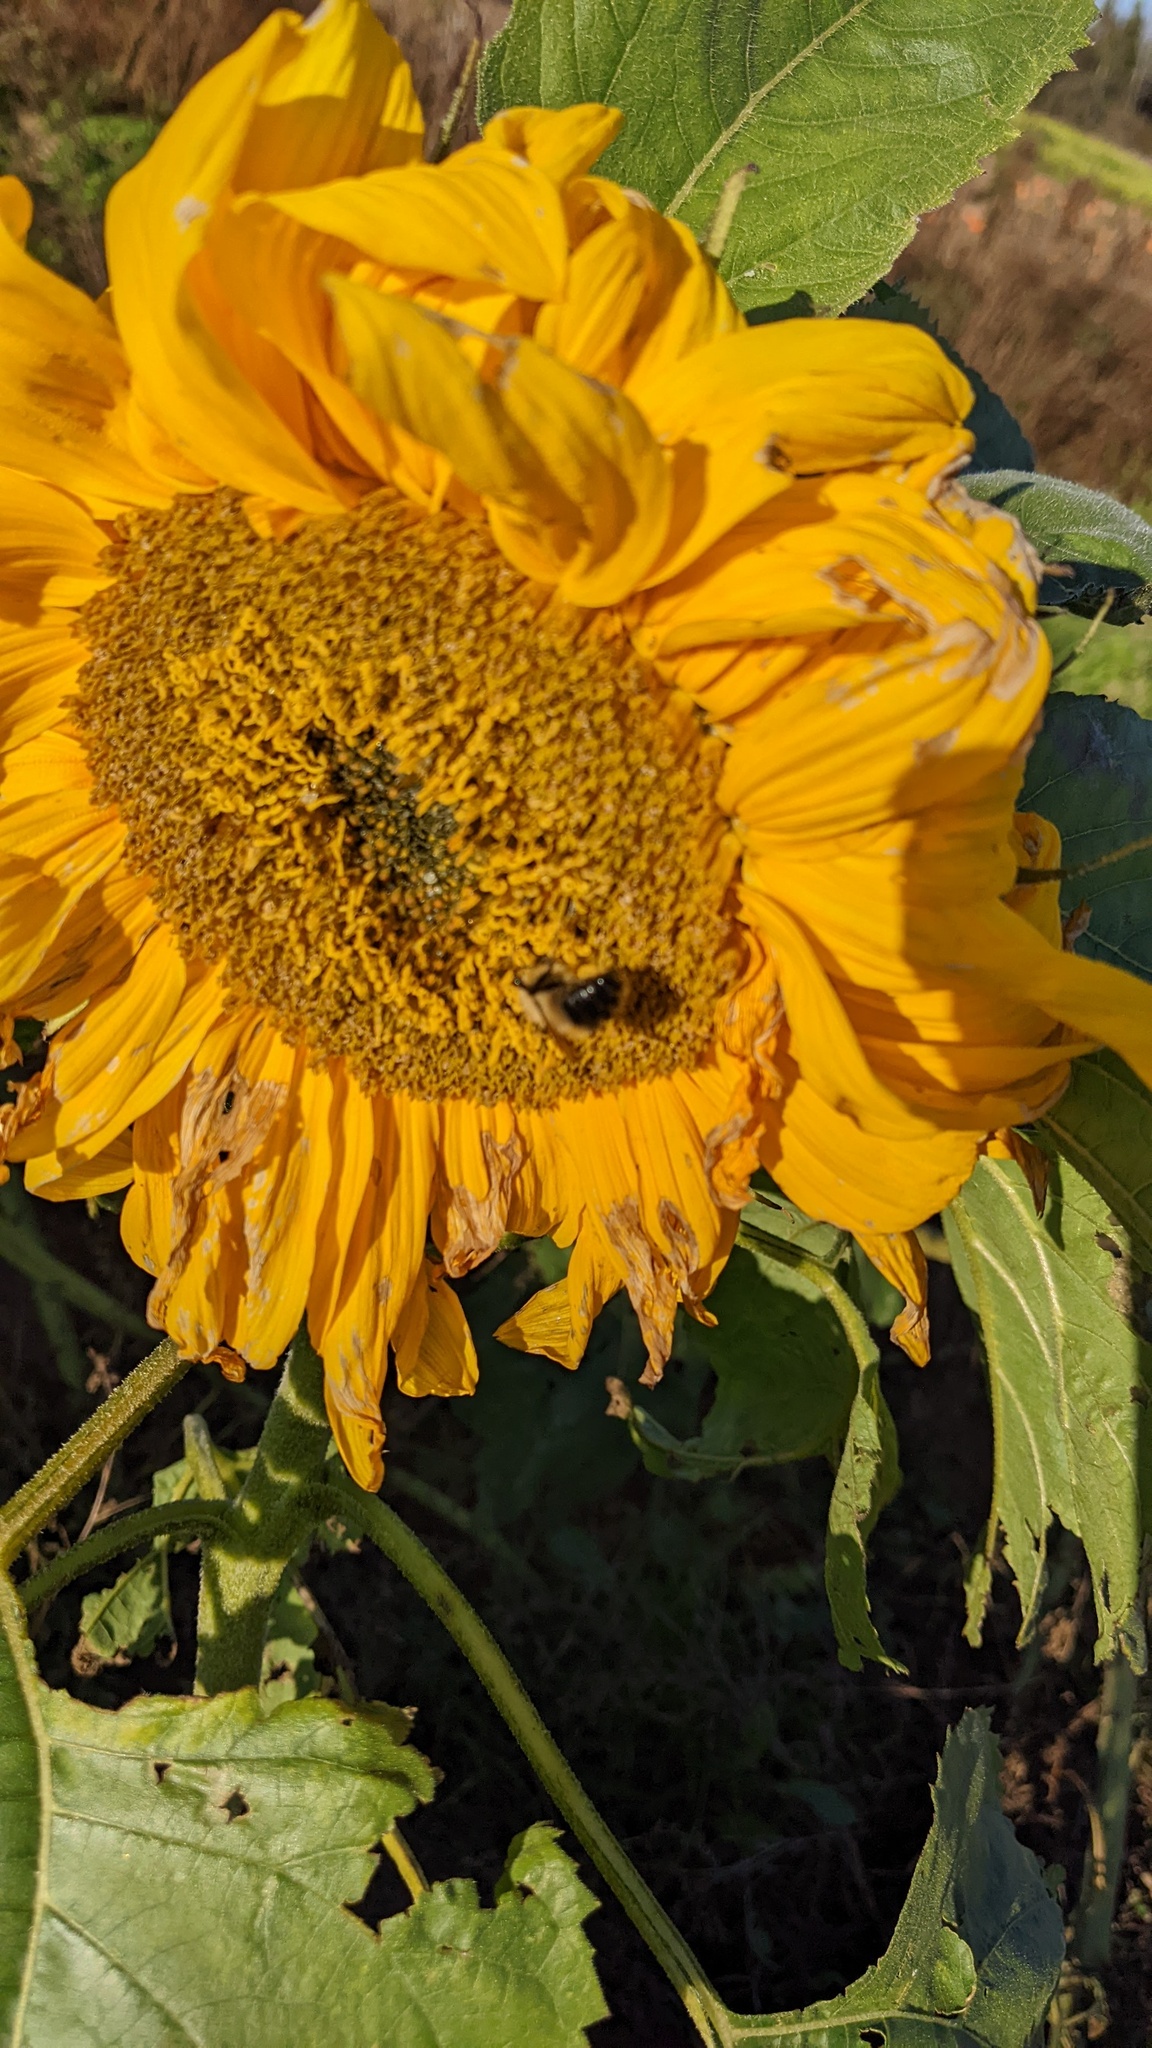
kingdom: Animalia
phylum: Arthropoda
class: Insecta
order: Hymenoptera
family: Apidae
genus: Pyrobombus
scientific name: Pyrobombus
